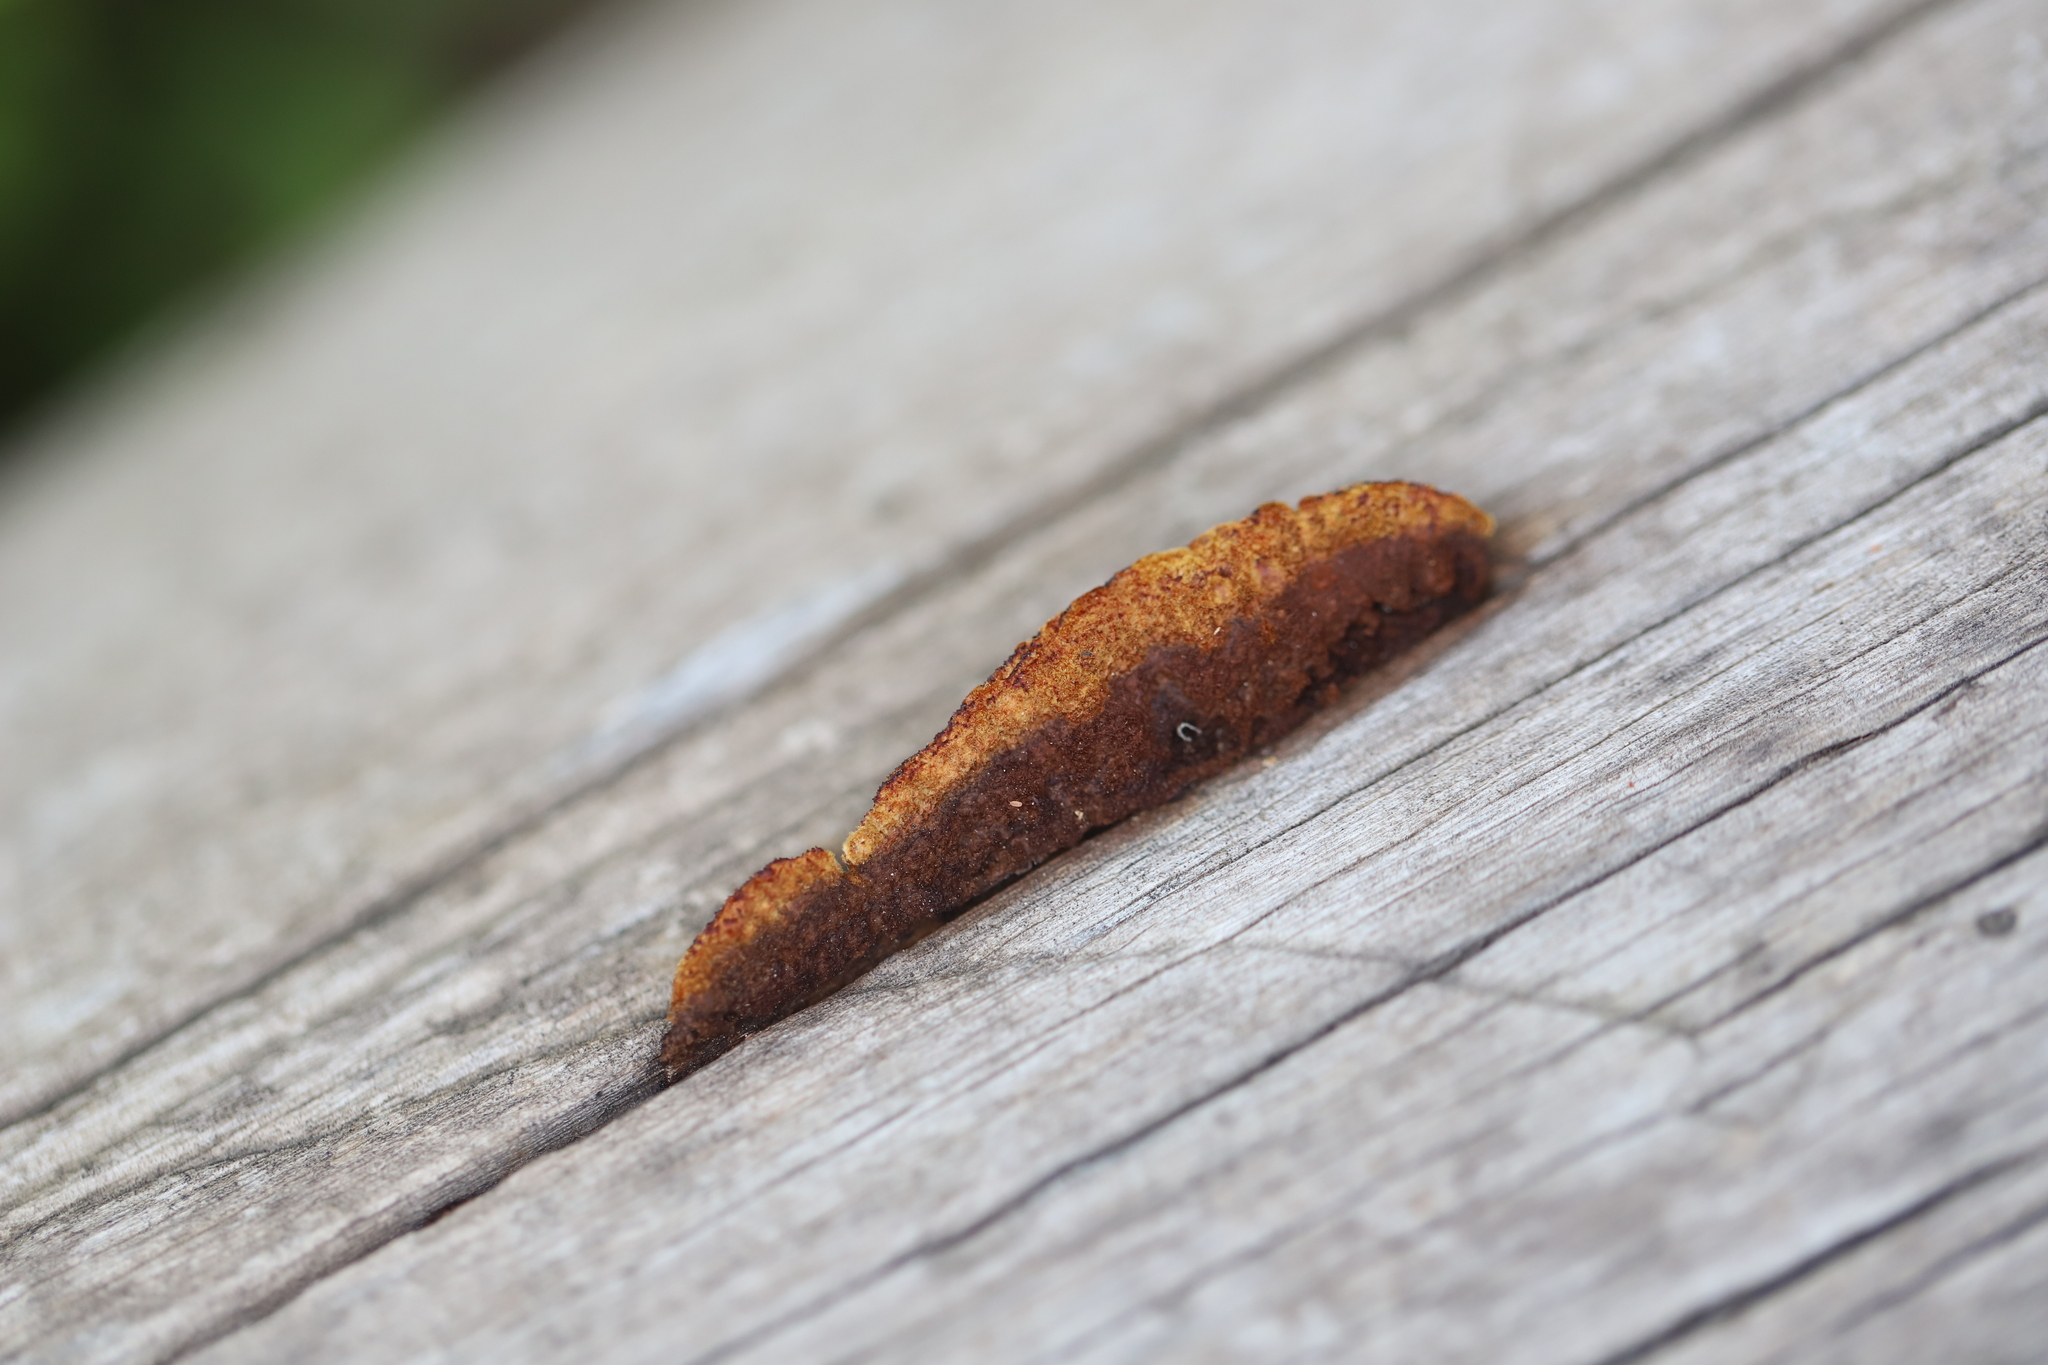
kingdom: Fungi
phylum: Basidiomycota
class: Agaricomycetes
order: Gloeophyllales
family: Gloeophyllaceae
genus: Gloeophyllum
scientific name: Gloeophyllum sepiarium
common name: Conifer mazegill
